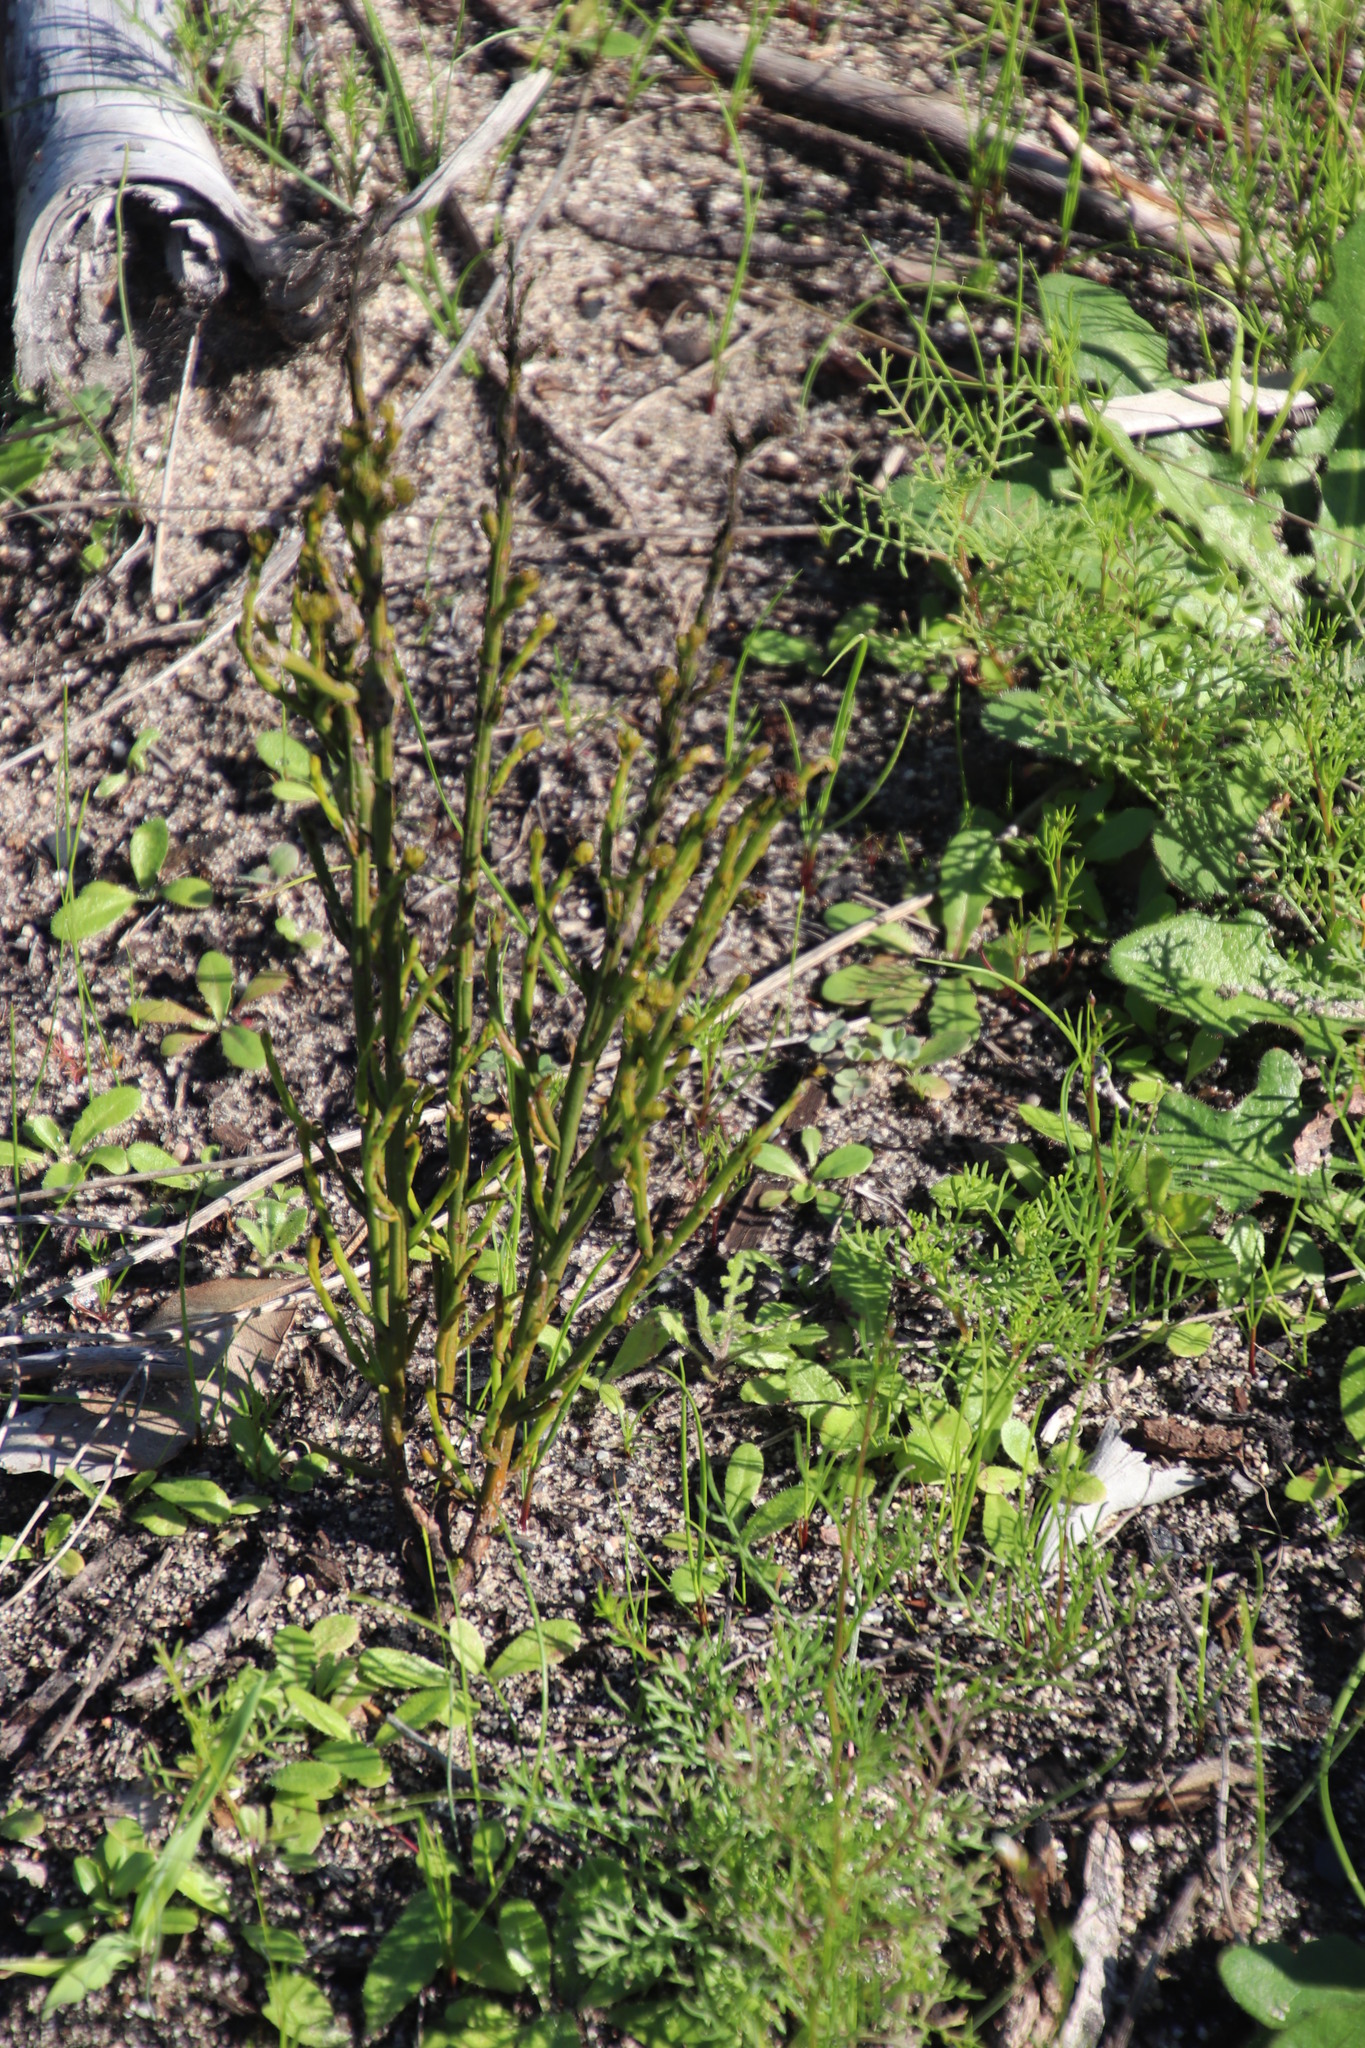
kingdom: Plantae
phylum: Tracheophyta
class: Magnoliopsida
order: Santalales
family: Thesiaceae
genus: Thesium
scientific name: Thesium aggregatum
